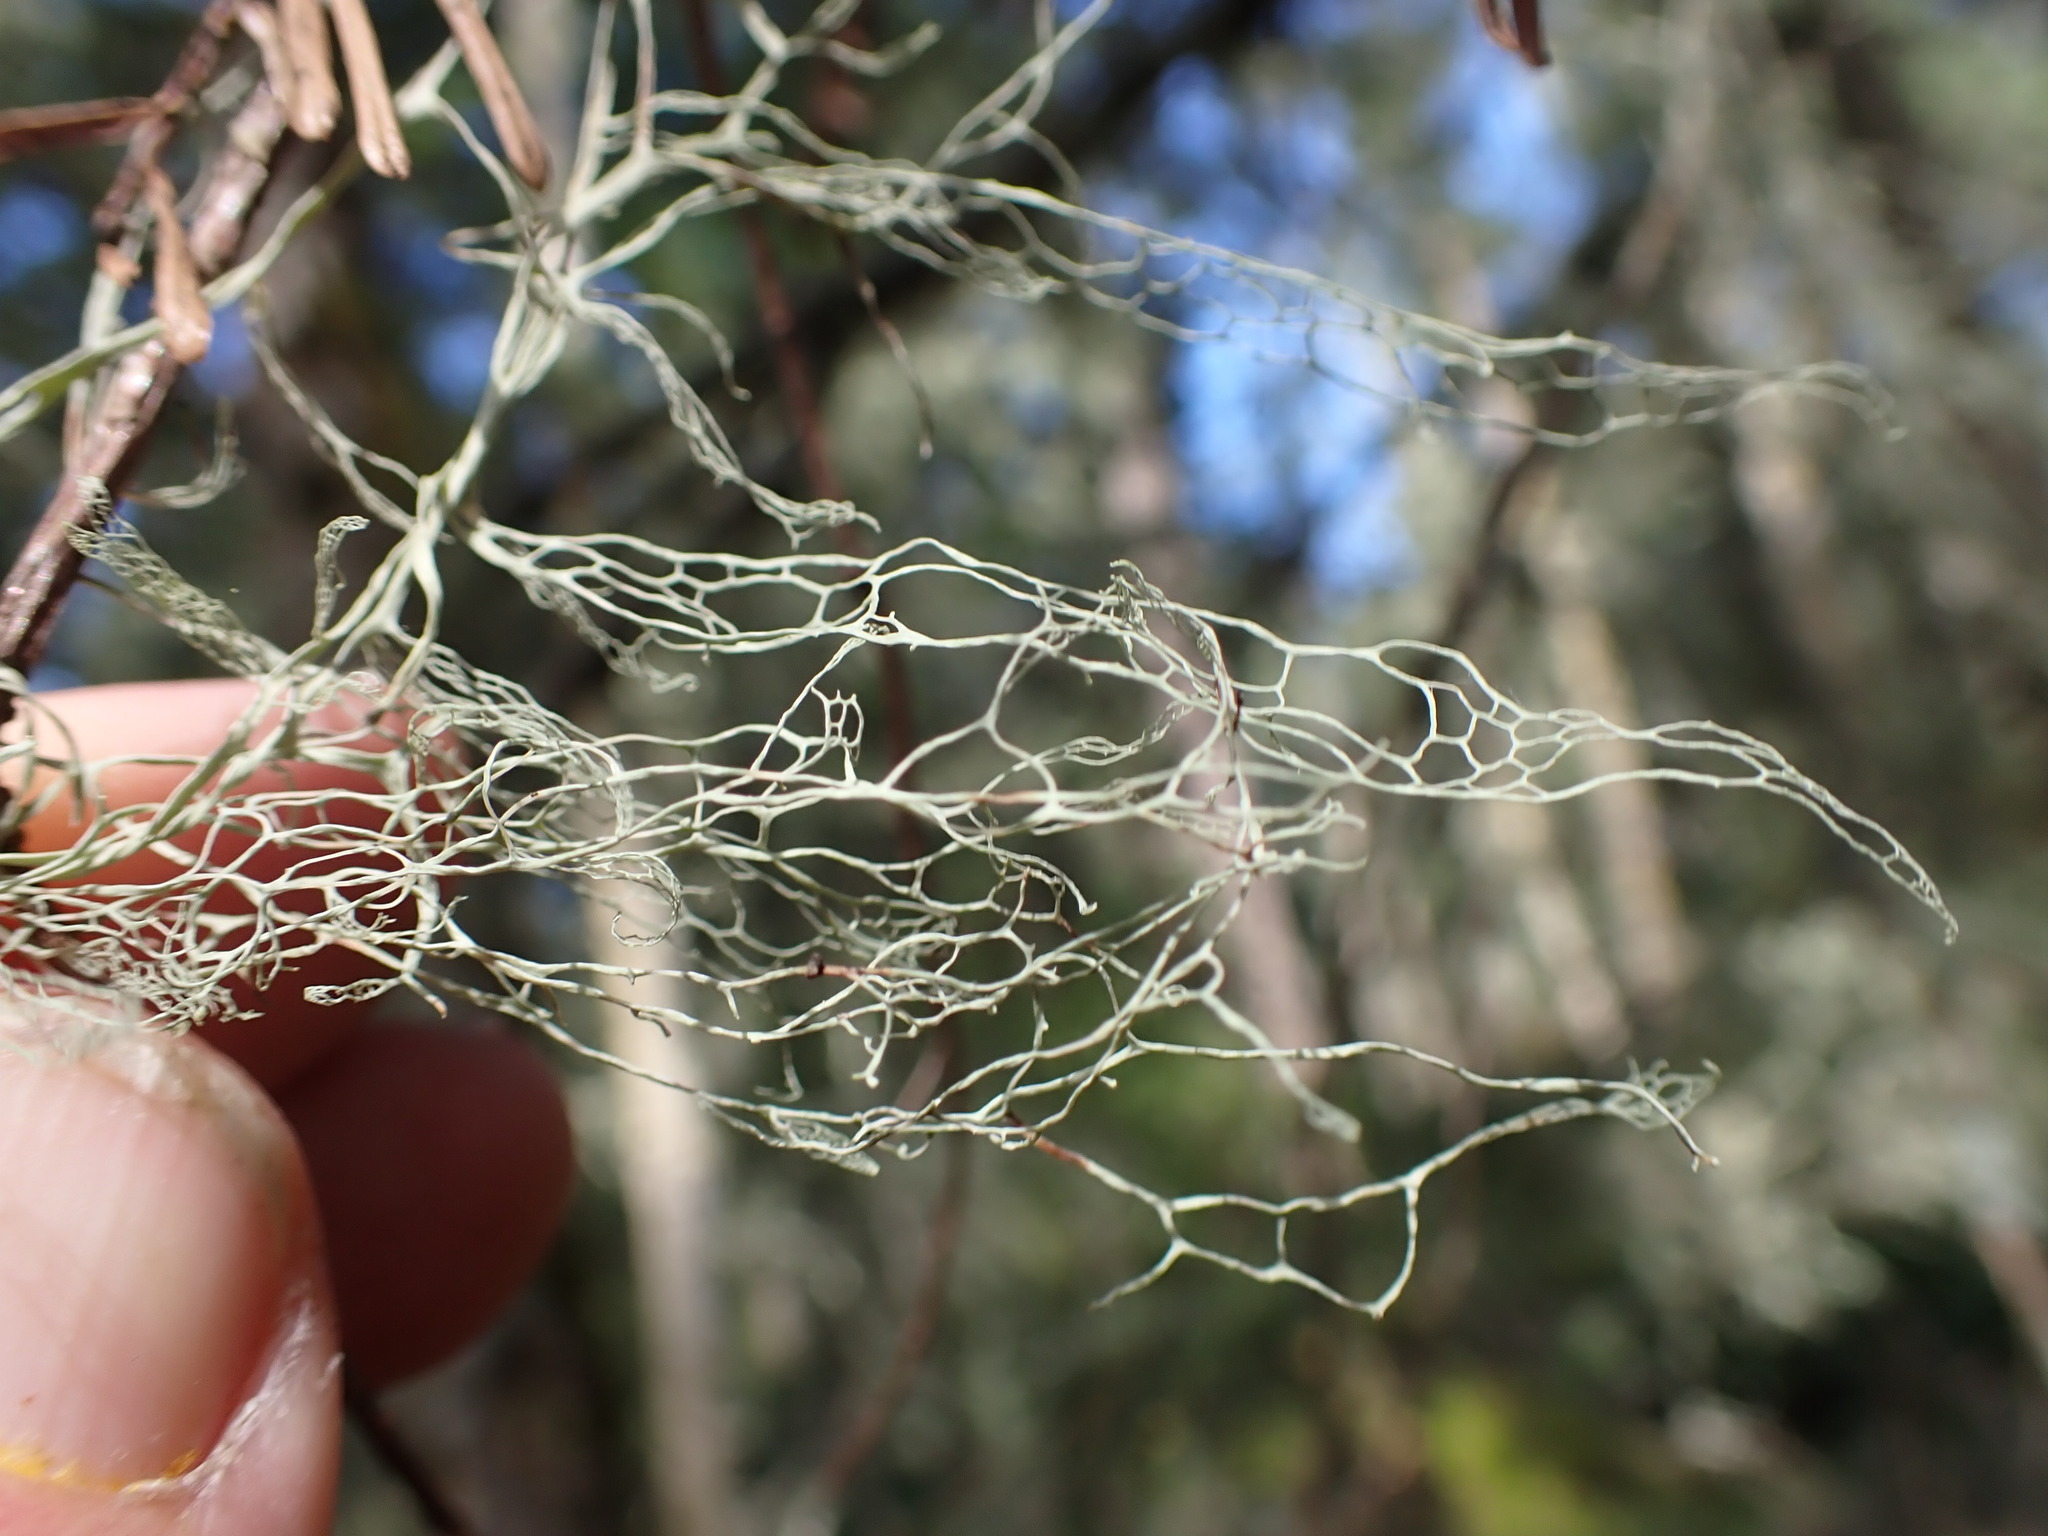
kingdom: Fungi
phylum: Ascomycota
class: Lecanoromycetes
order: Lecanorales
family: Ramalinaceae
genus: Ramalina
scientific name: Ramalina menziesii
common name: Lace lichen
